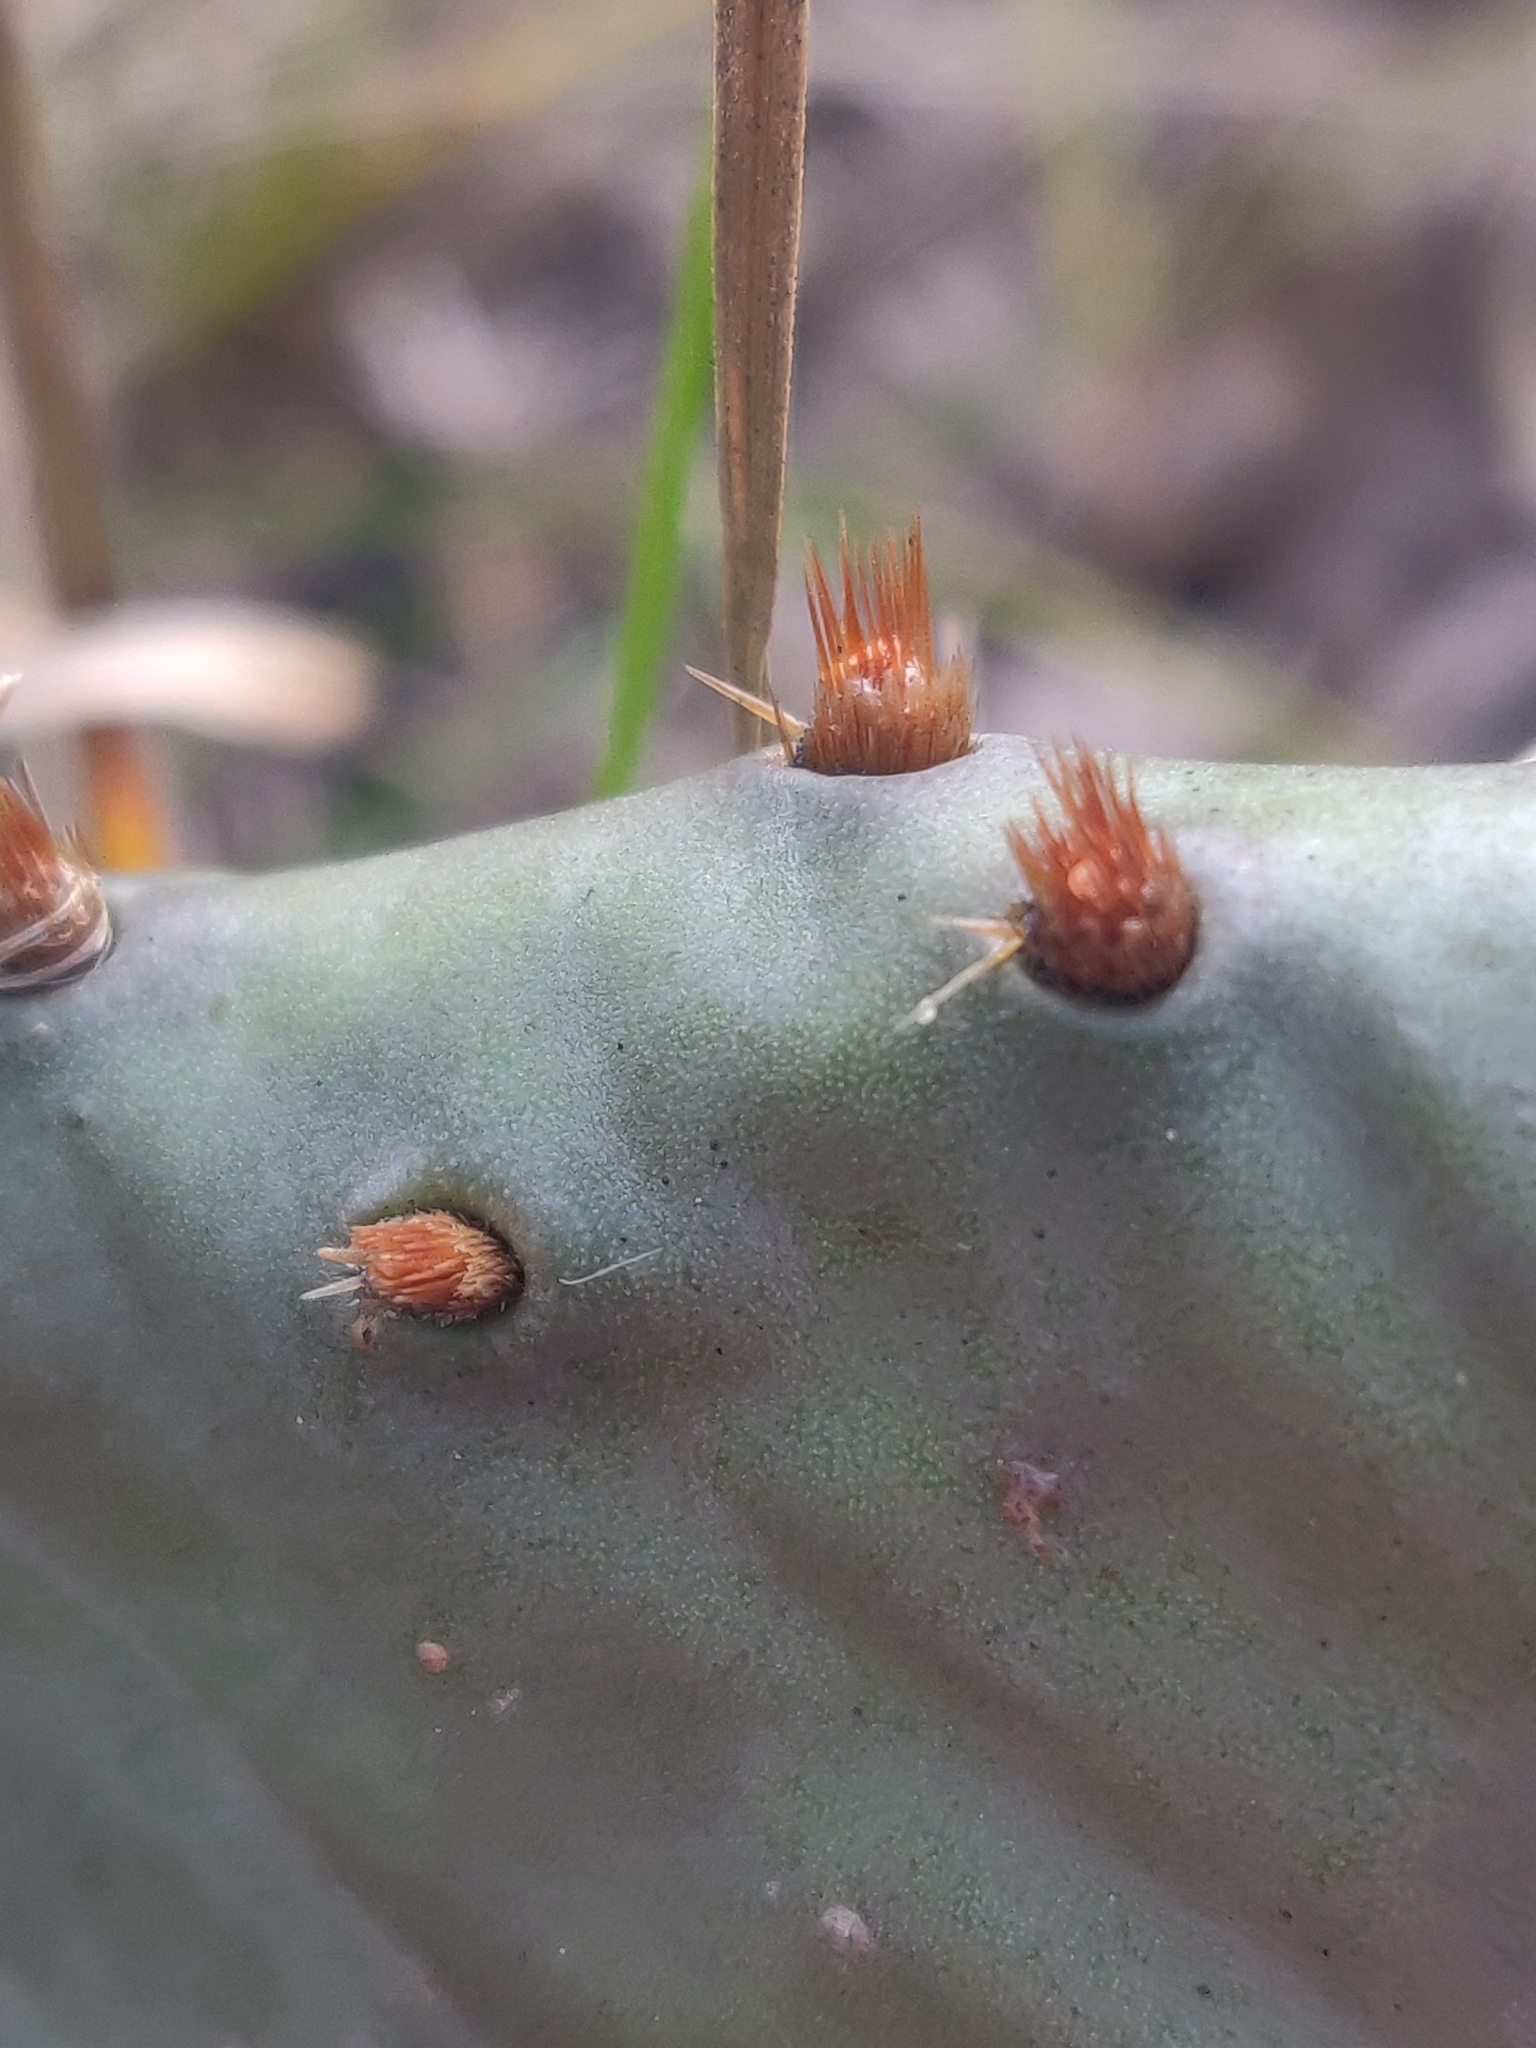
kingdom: Plantae
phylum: Tracheophyta
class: Magnoliopsida
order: Caryophyllales
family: Cactaceae
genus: Opuntia
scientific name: Opuntia humifusa
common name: Eastern prickly-pear
